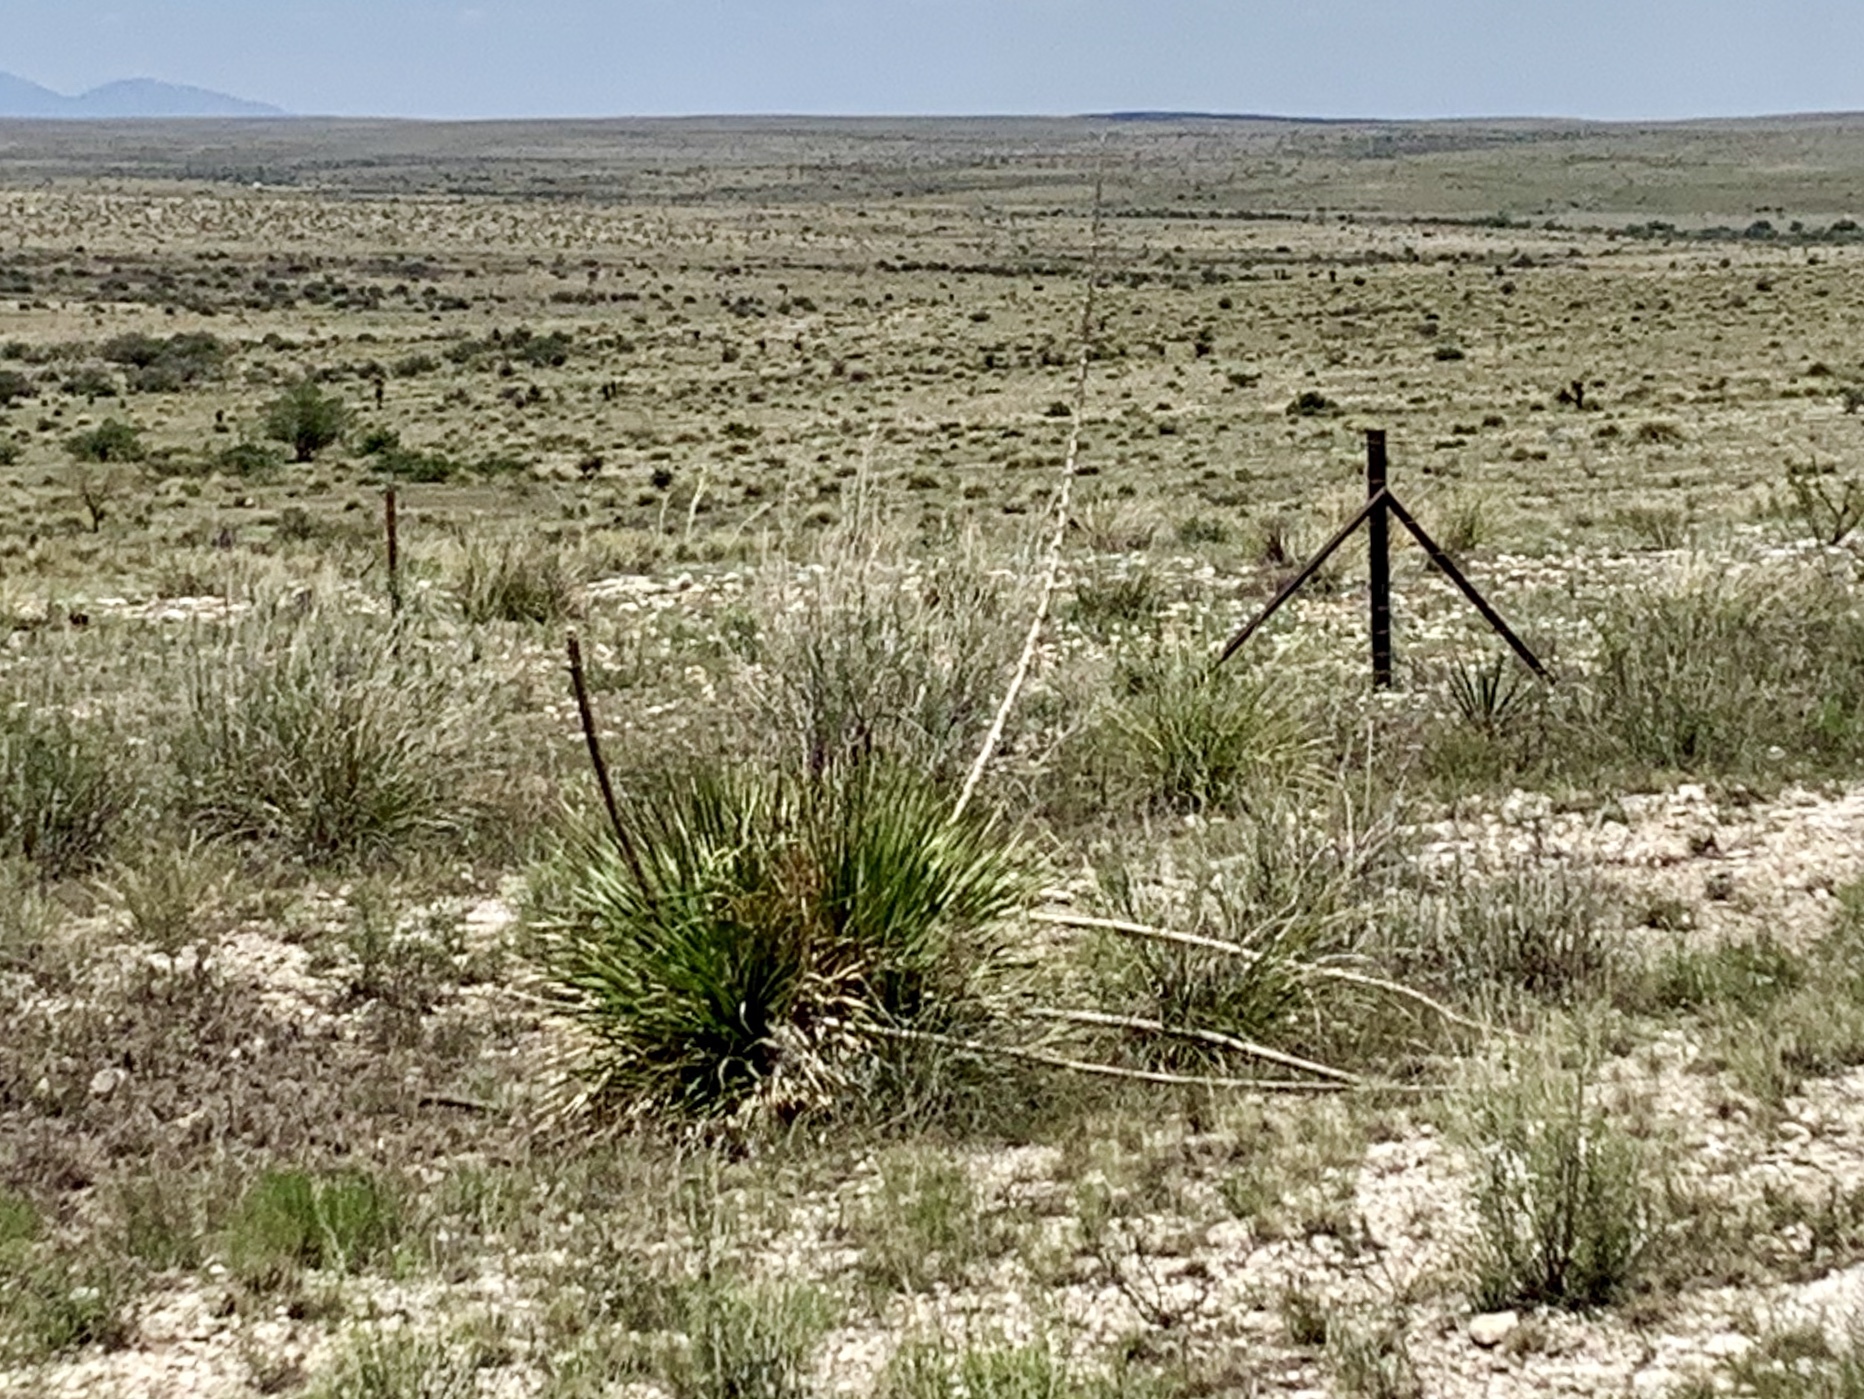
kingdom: Plantae
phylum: Tracheophyta
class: Liliopsida
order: Asparagales
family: Asparagaceae
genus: Yucca
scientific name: Yucca elata
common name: Palmella
